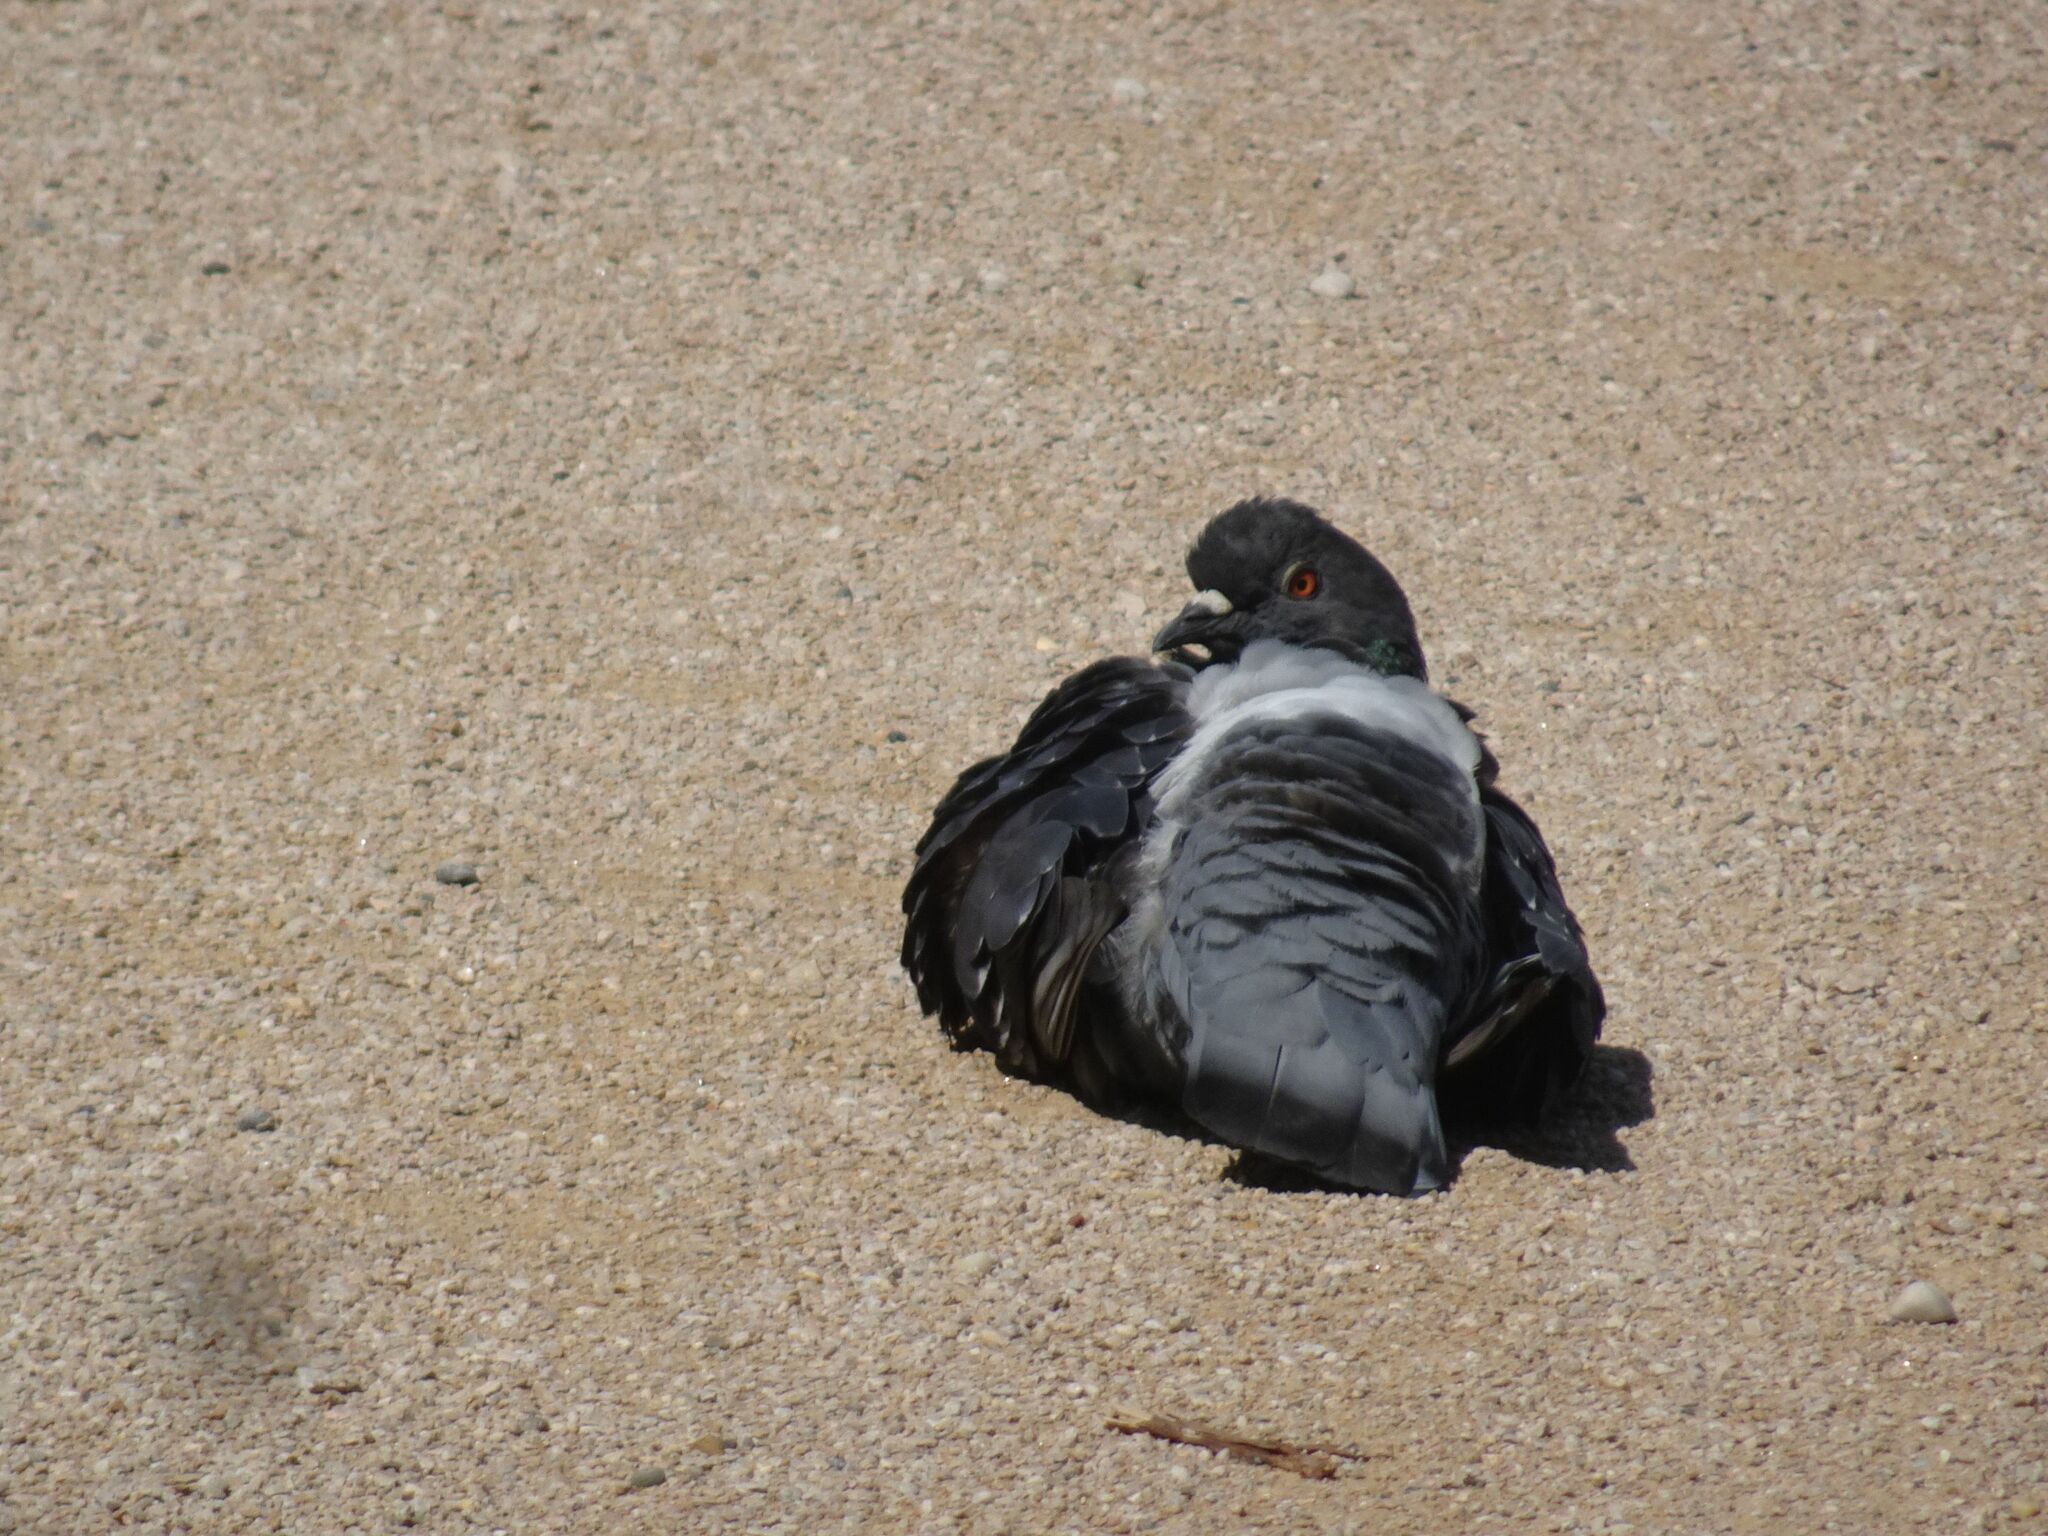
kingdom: Animalia
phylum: Chordata
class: Aves
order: Columbiformes
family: Columbidae
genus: Columba
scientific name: Columba livia
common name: Rock pigeon
